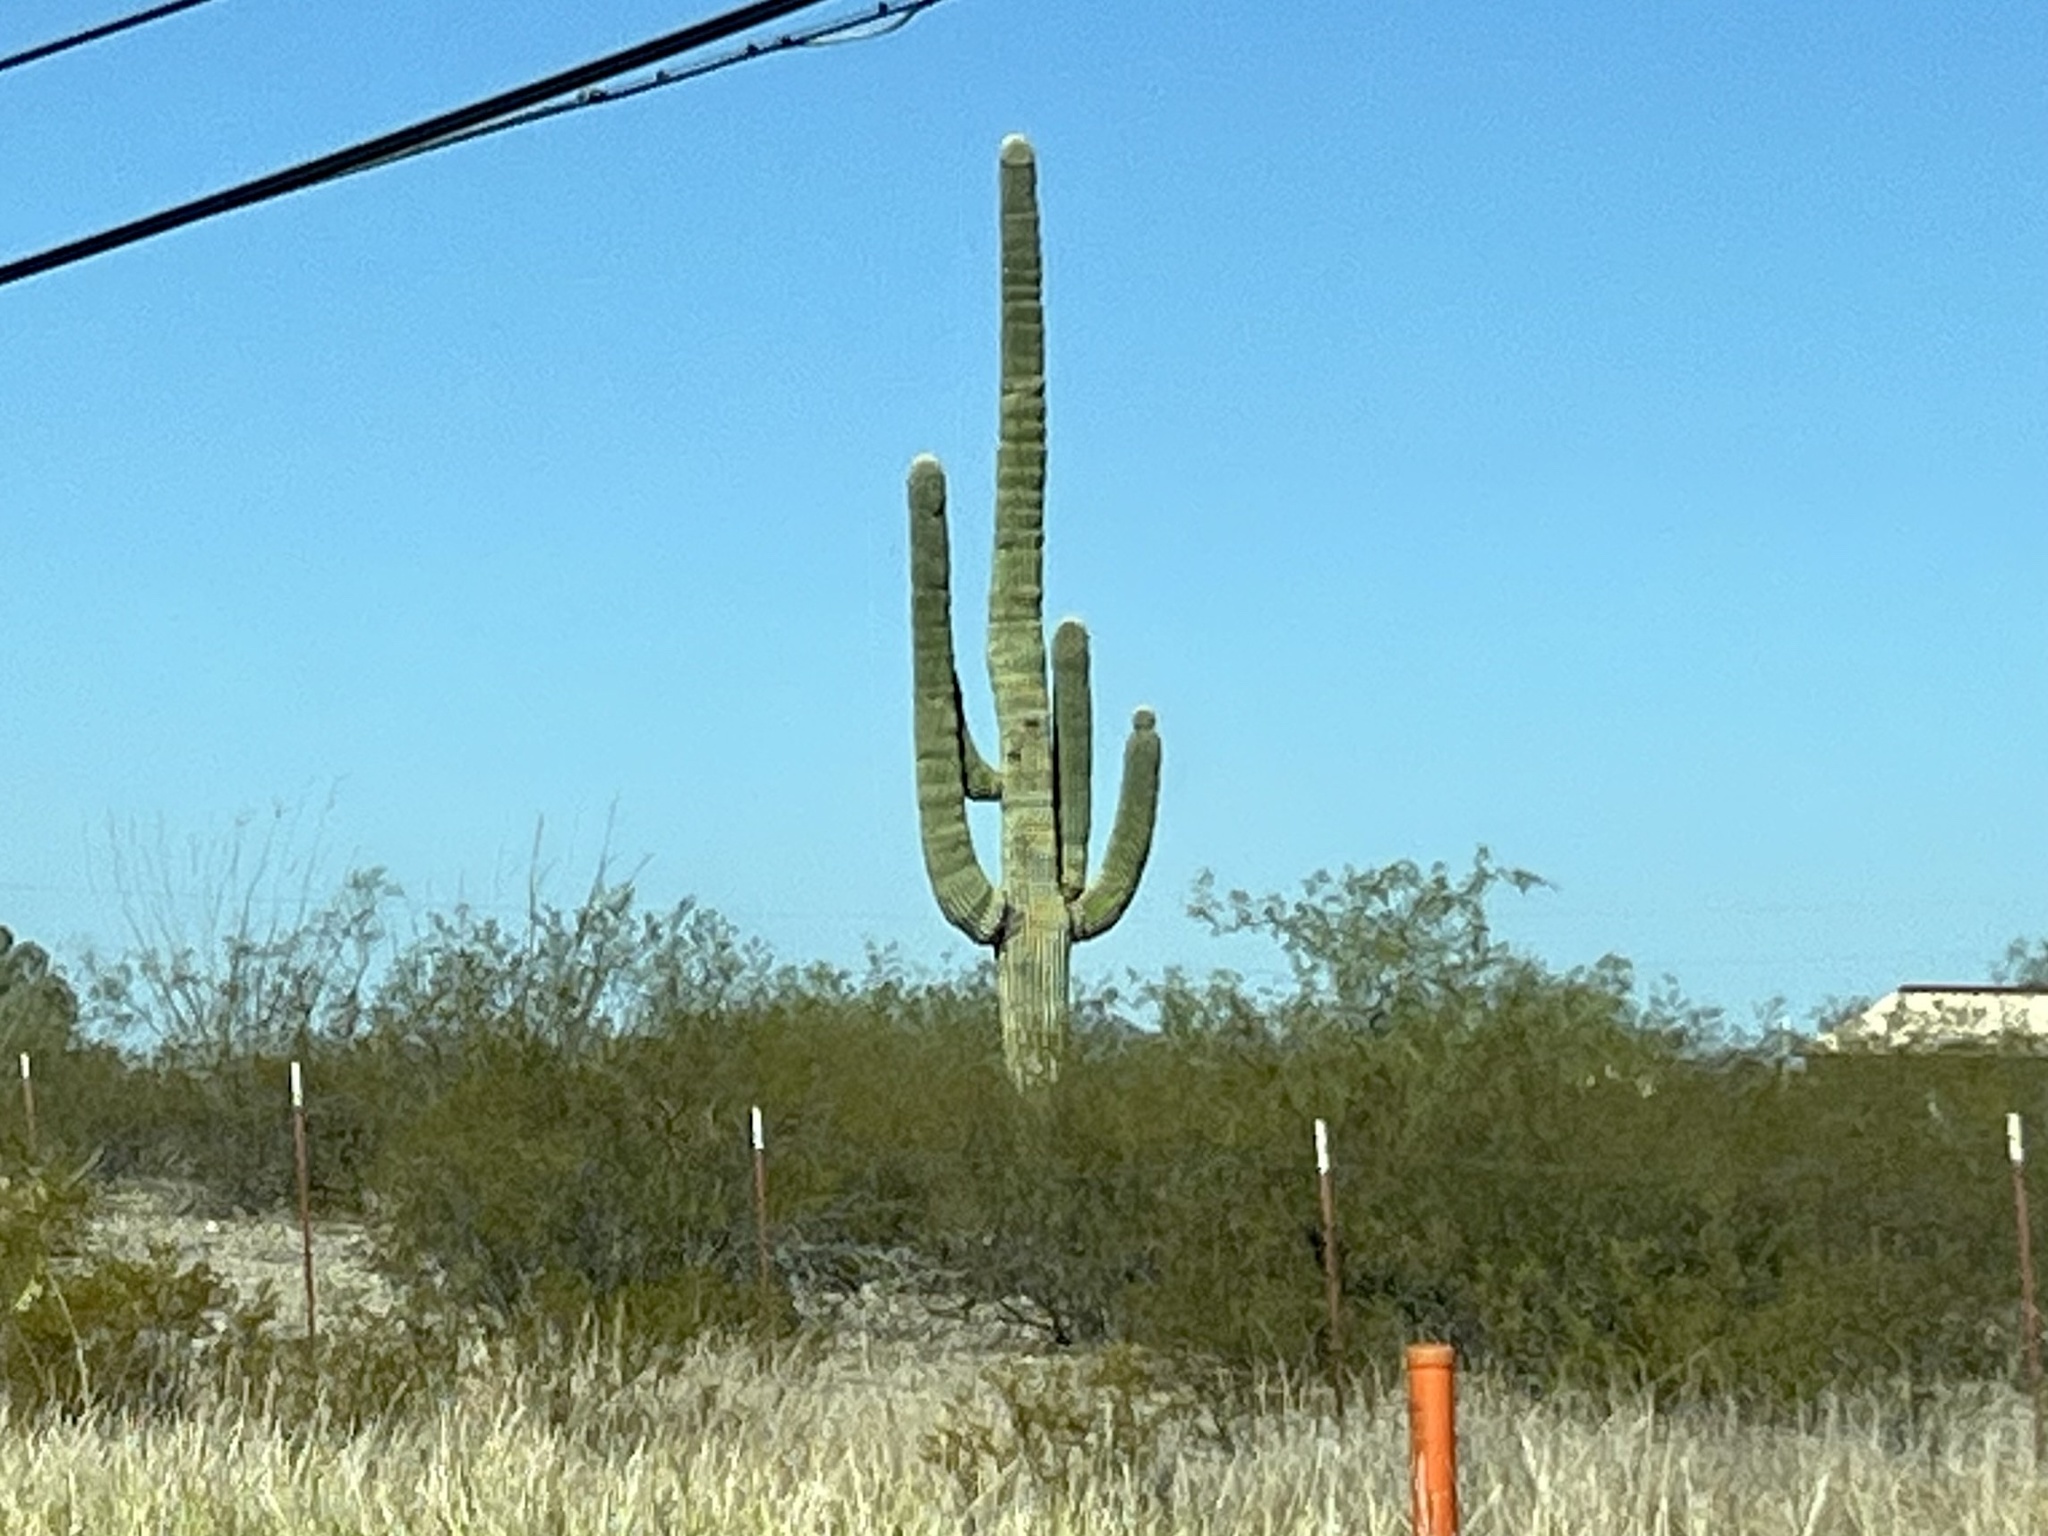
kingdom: Plantae
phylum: Tracheophyta
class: Magnoliopsida
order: Caryophyllales
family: Cactaceae
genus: Carnegiea
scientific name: Carnegiea gigantea
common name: Saguaro
